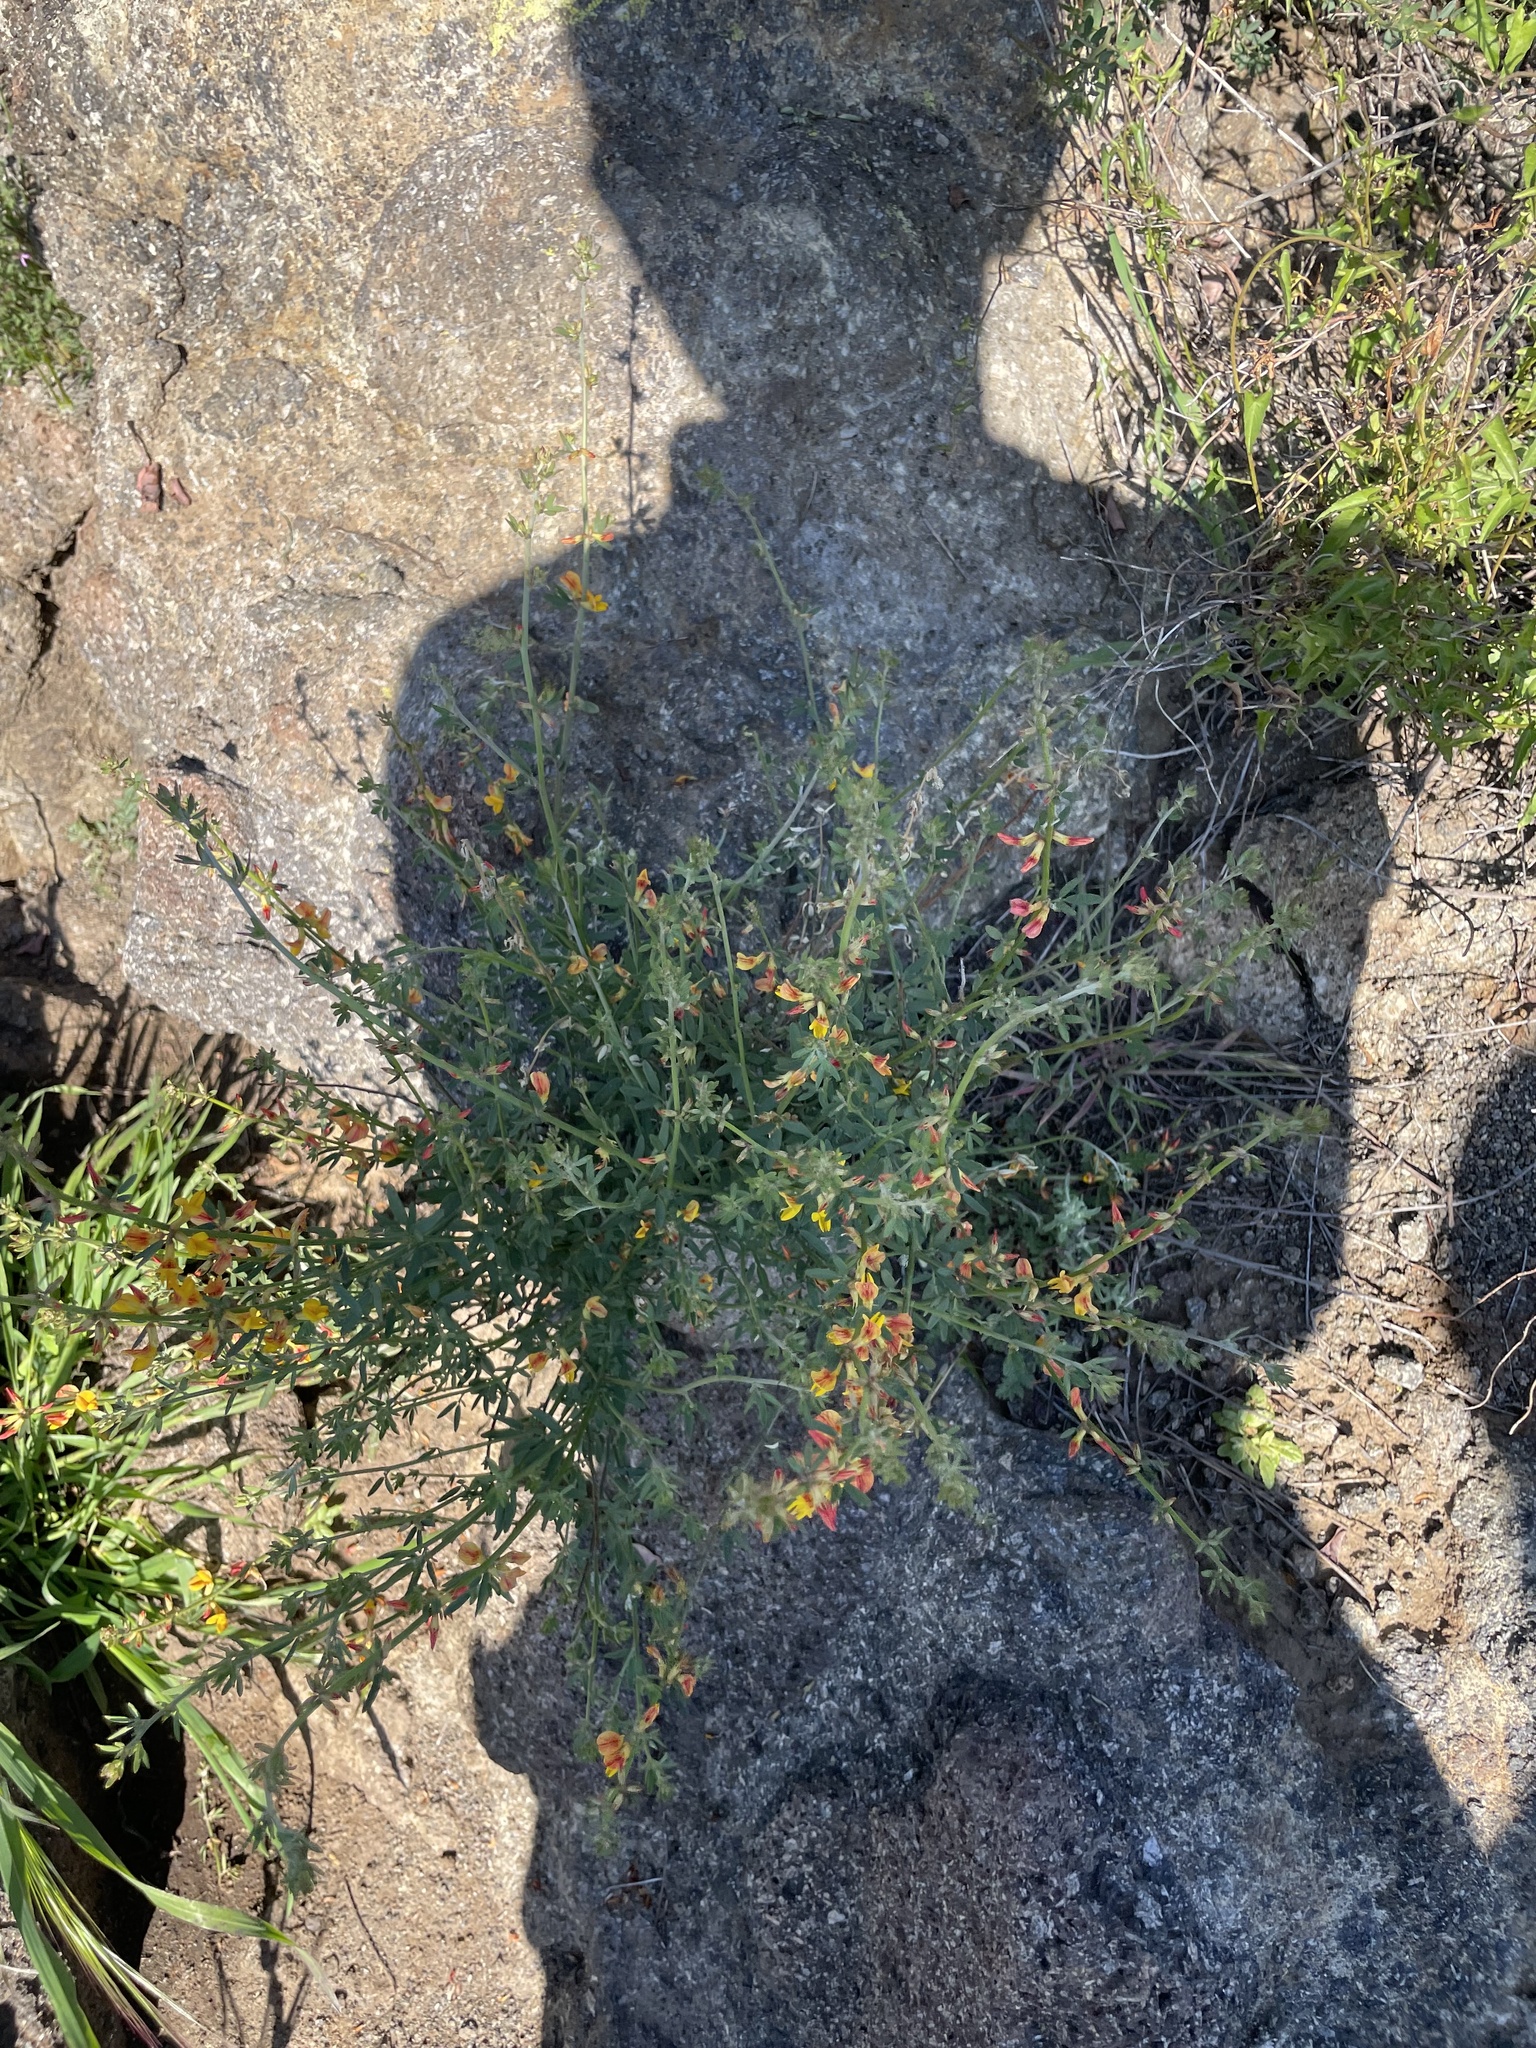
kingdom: Plantae
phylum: Tracheophyta
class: Magnoliopsida
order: Fabales
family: Fabaceae
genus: Acmispon
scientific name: Acmispon glaber
